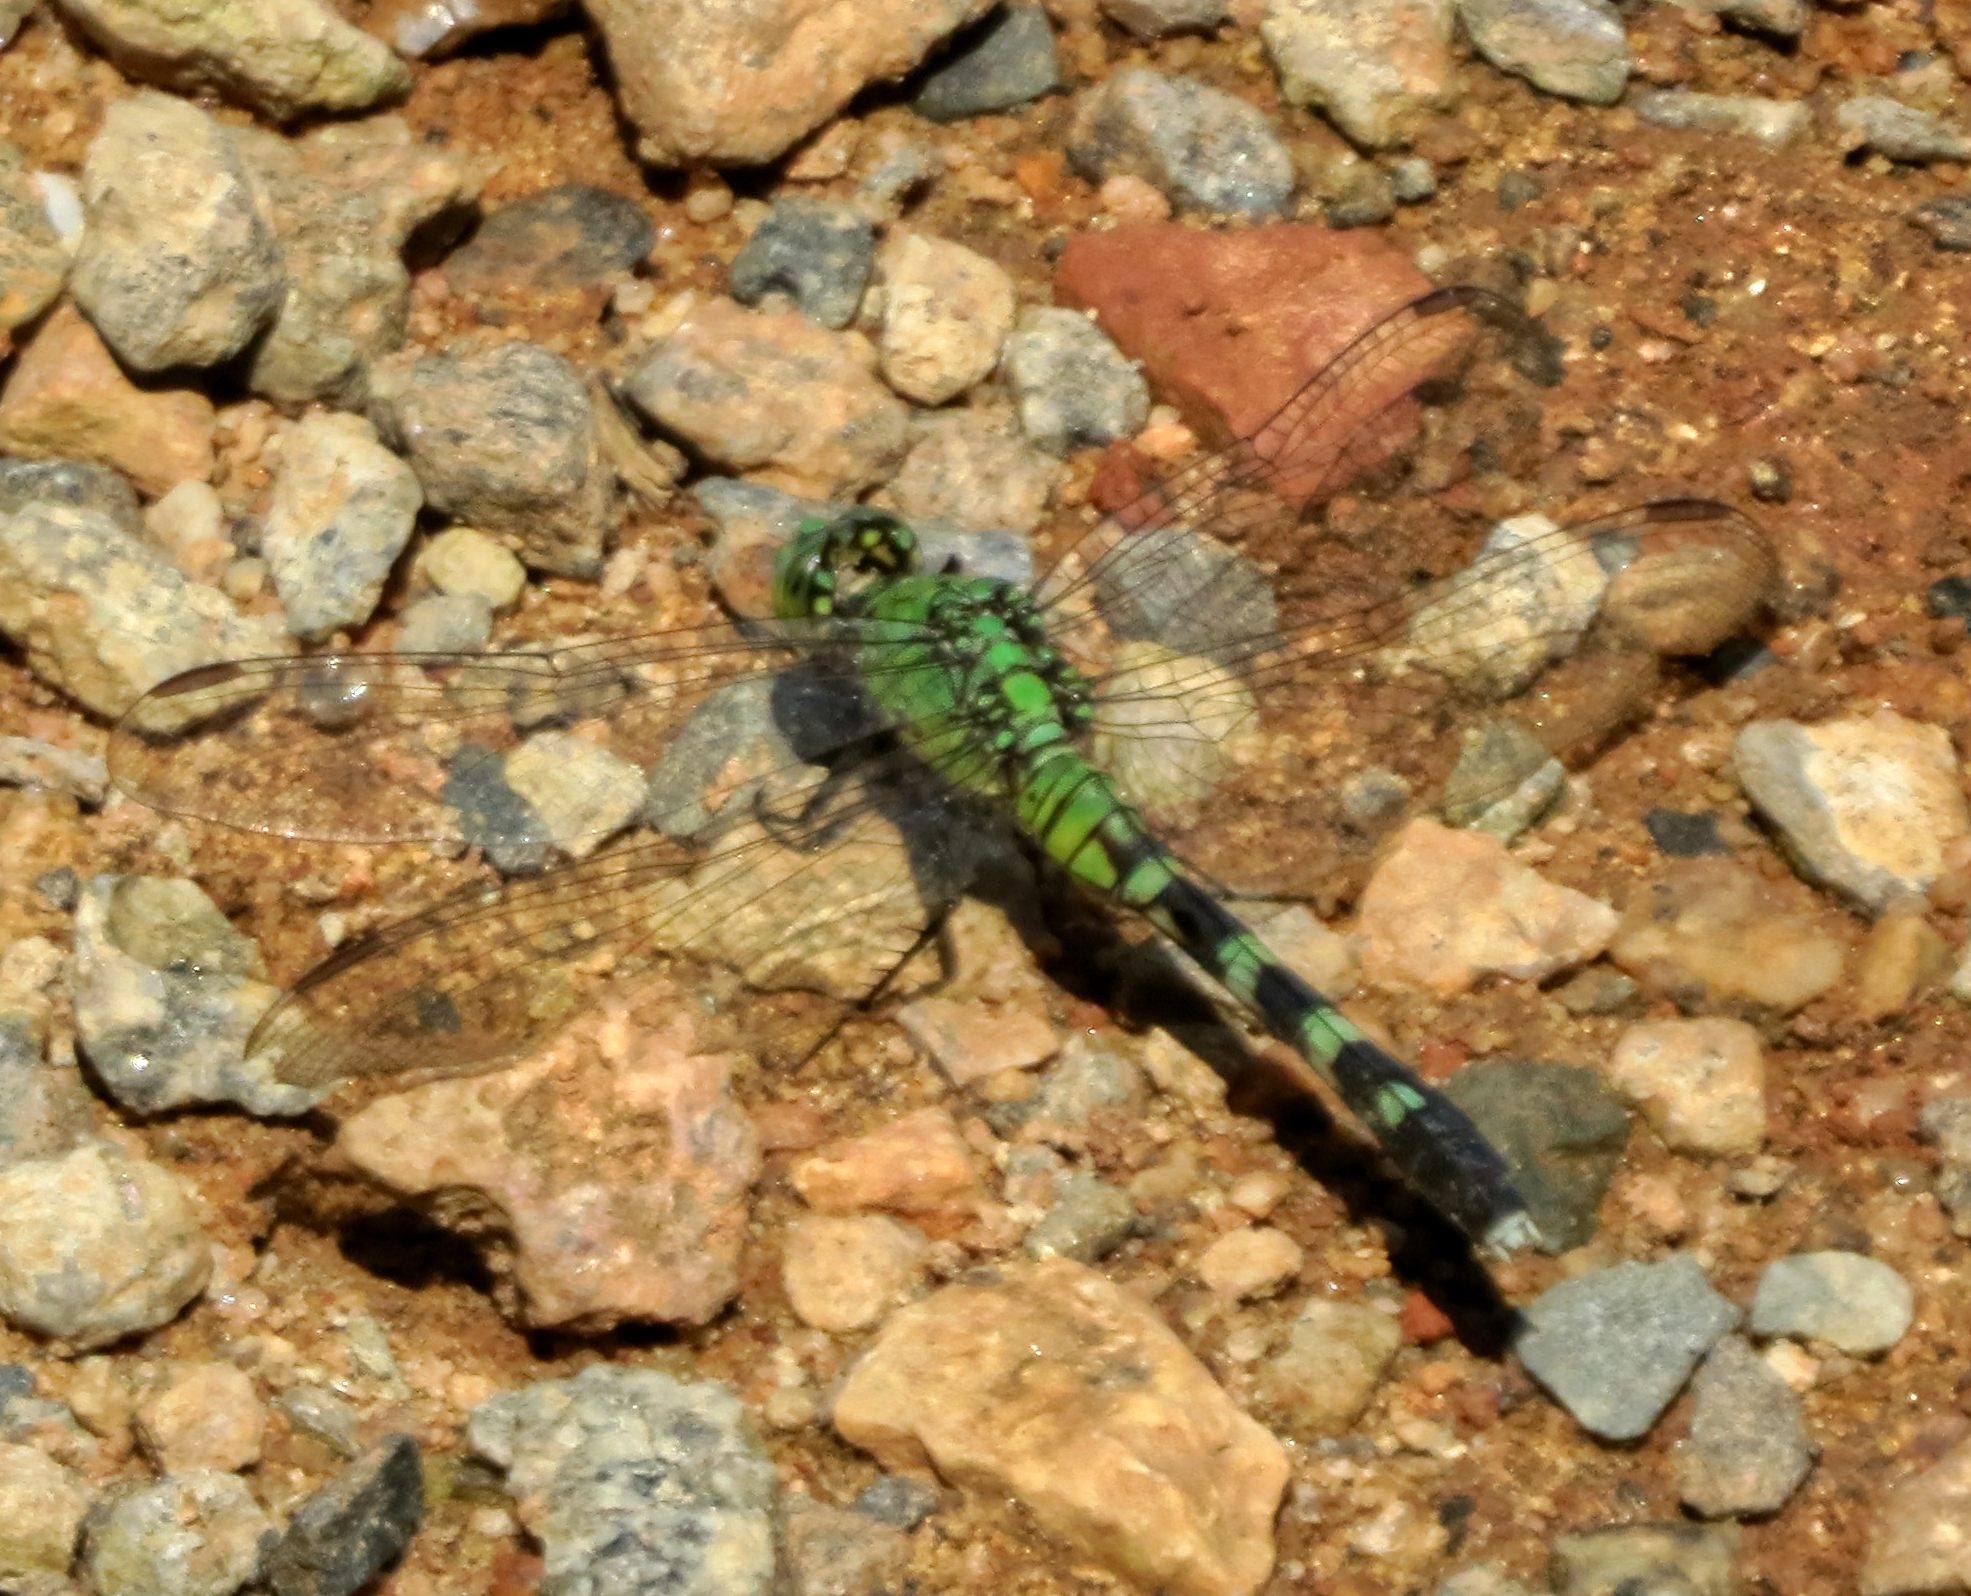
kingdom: Animalia
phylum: Arthropoda
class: Insecta
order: Odonata
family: Libellulidae
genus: Erythemis
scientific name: Erythemis simplicicollis
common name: Eastern pondhawk
